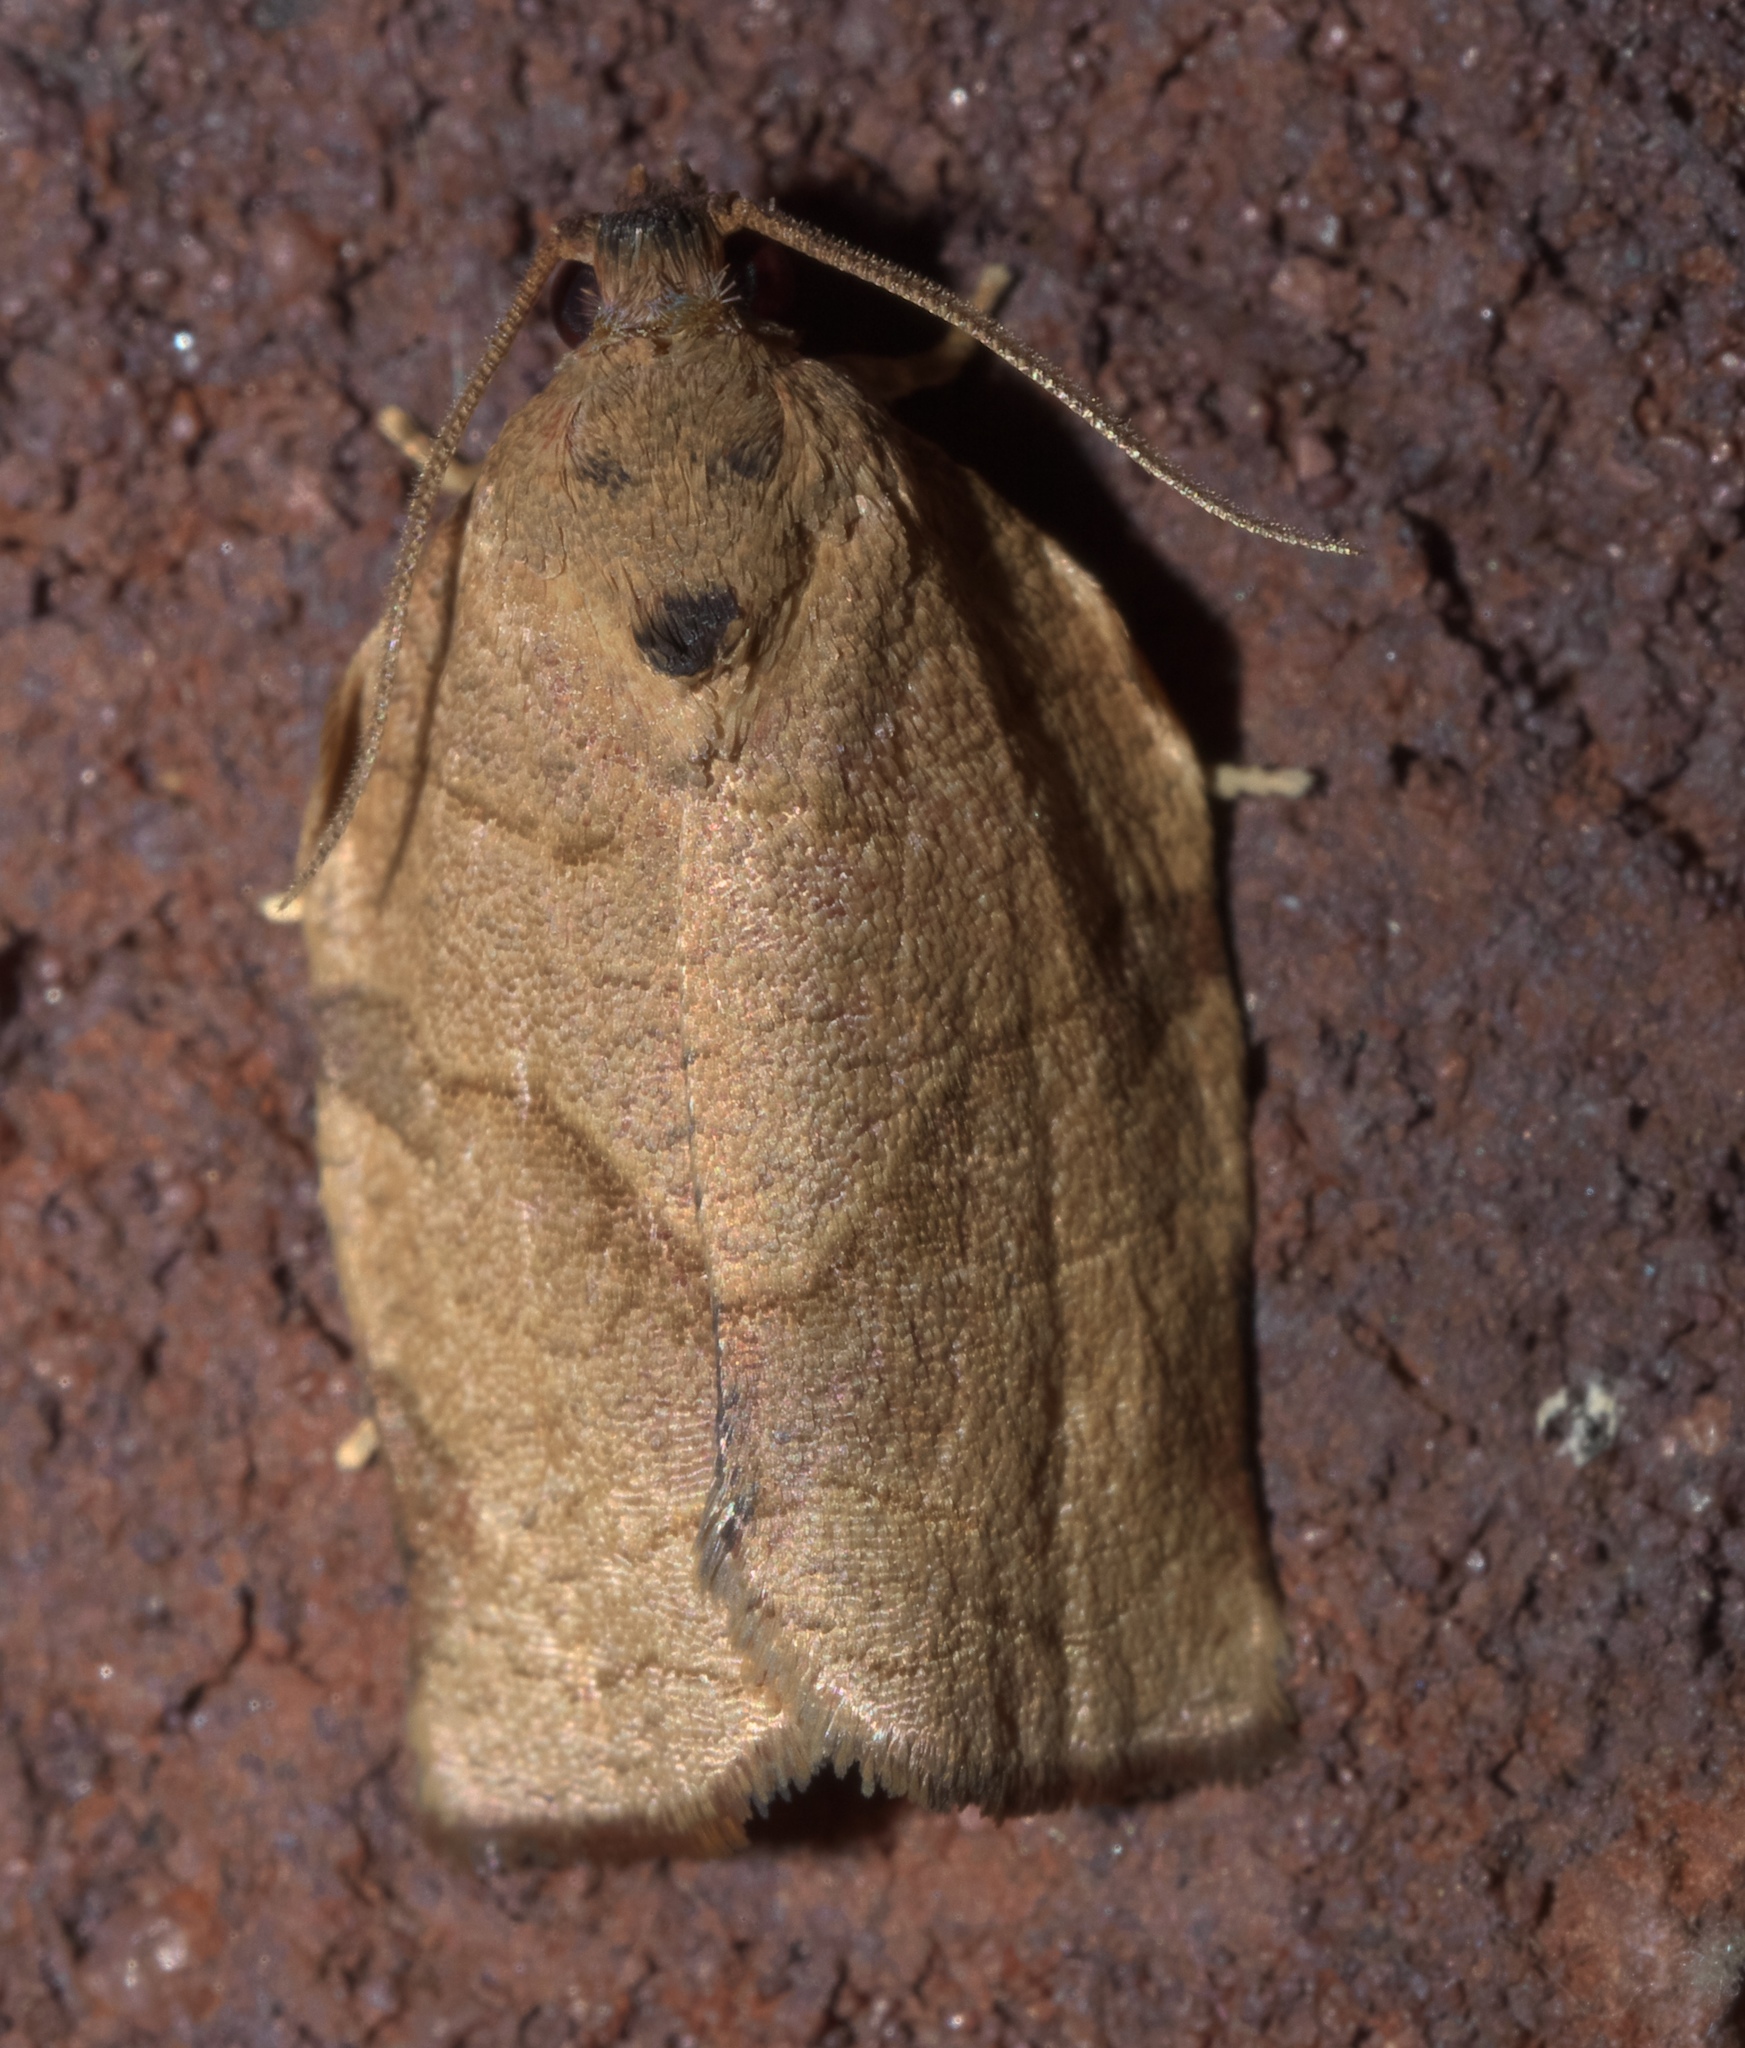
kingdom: Animalia
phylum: Arthropoda
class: Insecta
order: Lepidoptera
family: Tortricidae
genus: Choristoneura
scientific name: Choristoneura rosaceana
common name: Oblique-banded leafroller moth
